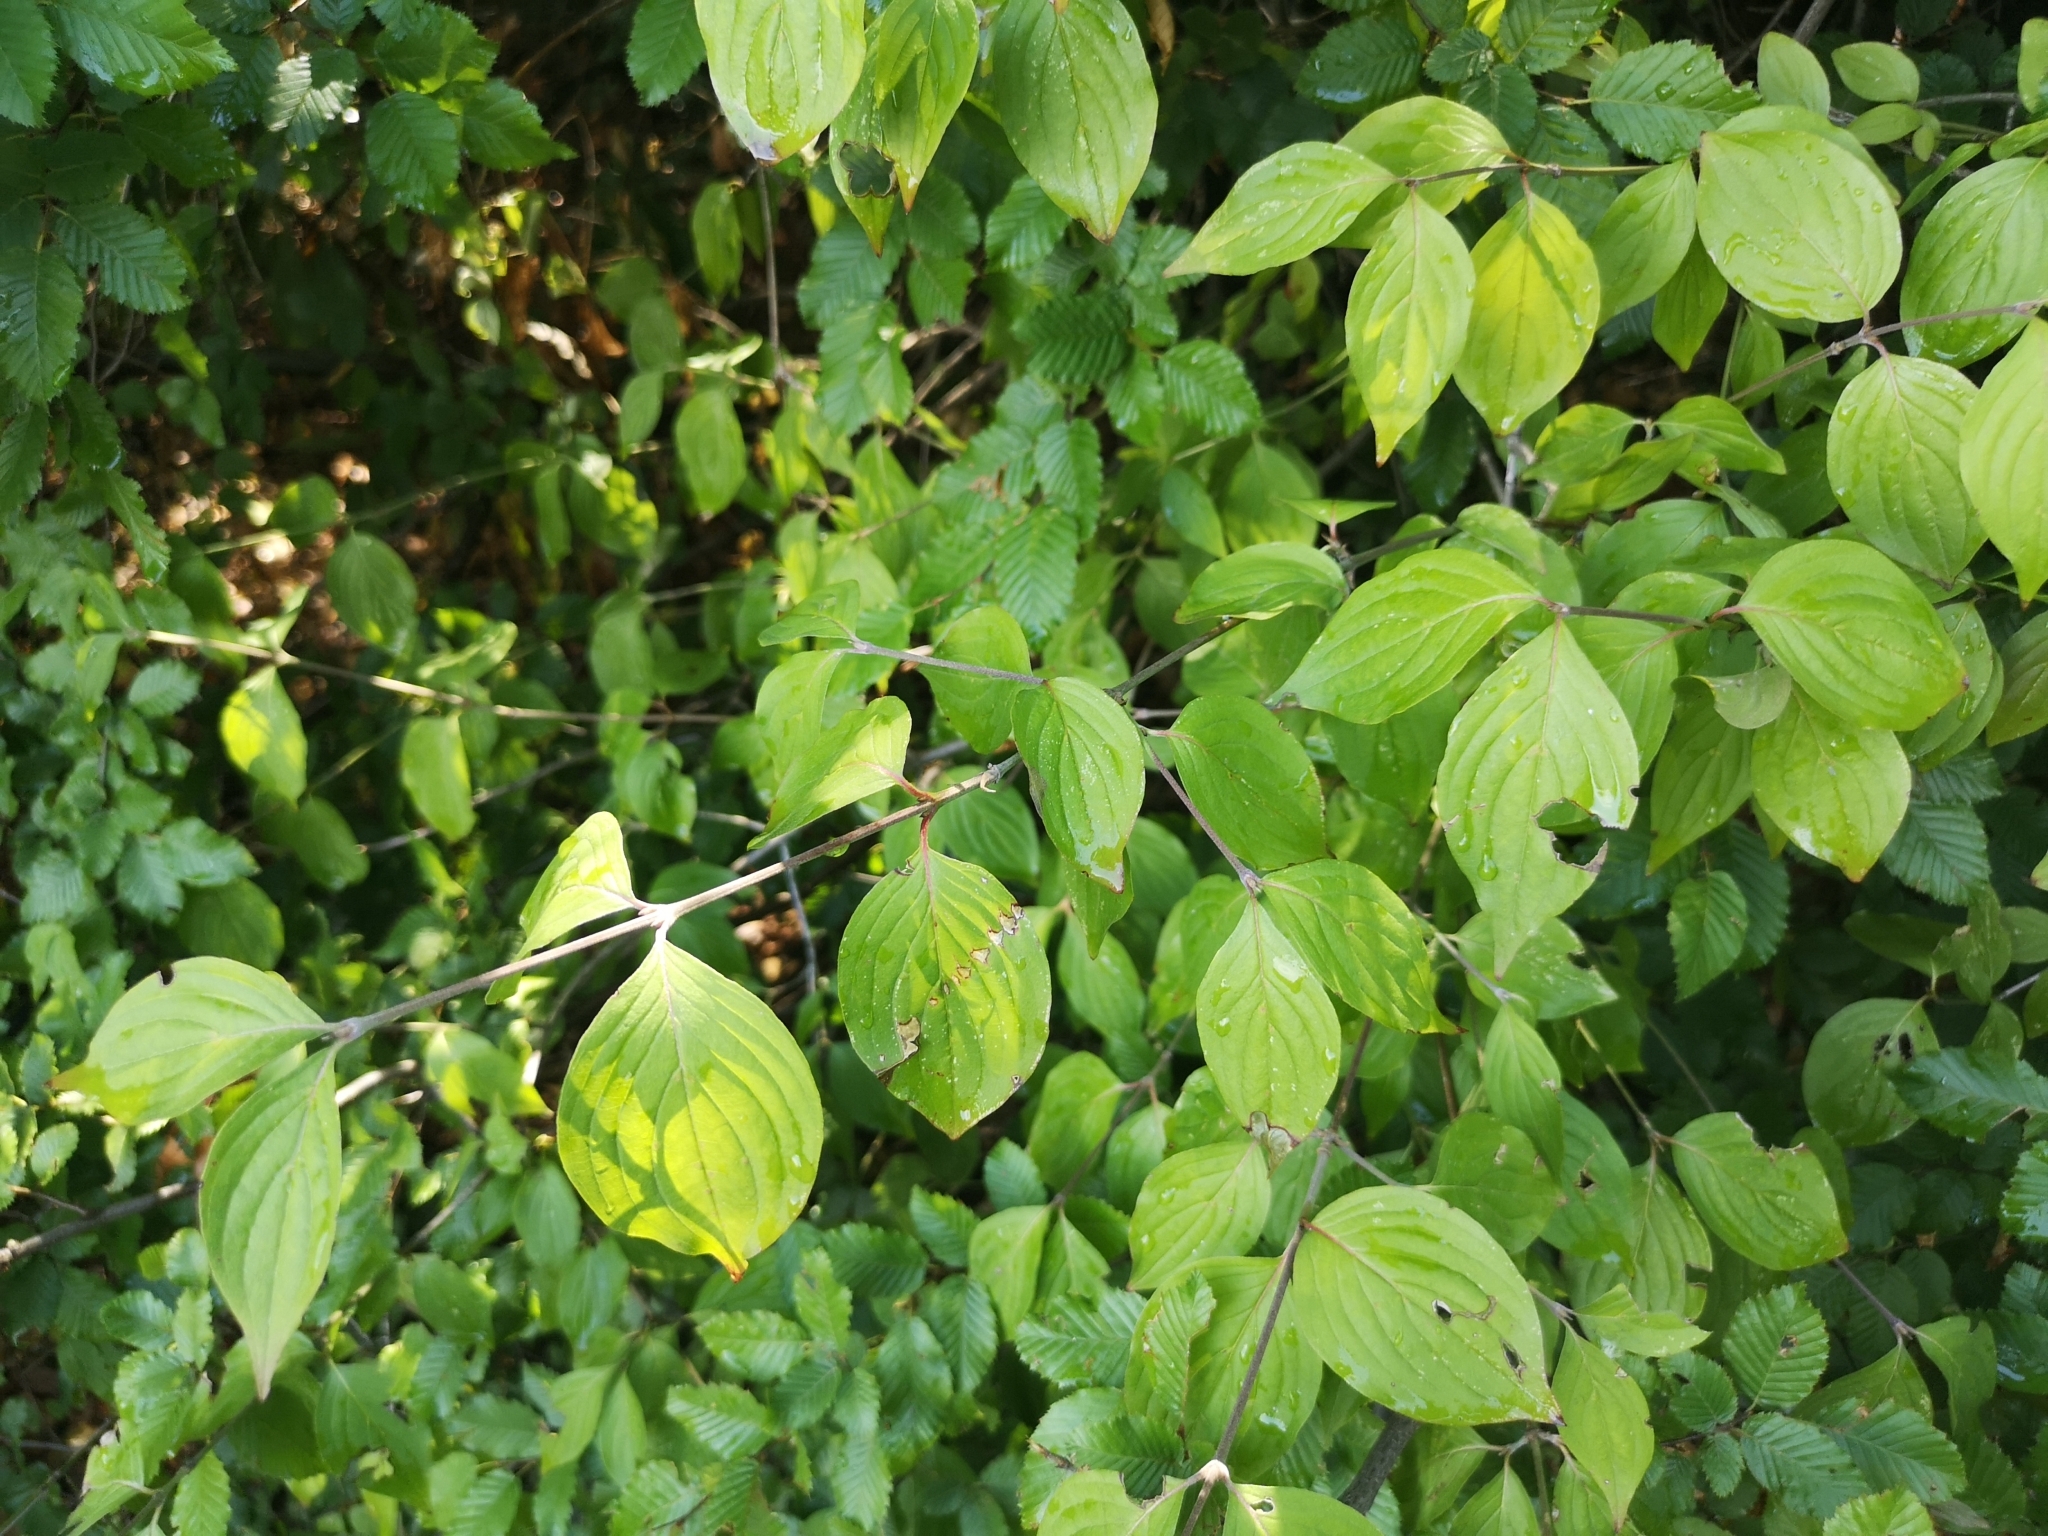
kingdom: Plantae
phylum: Tracheophyta
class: Magnoliopsida
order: Cornales
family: Cornaceae
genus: Cornus
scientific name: Cornus mas
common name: Cornelian-cherry
